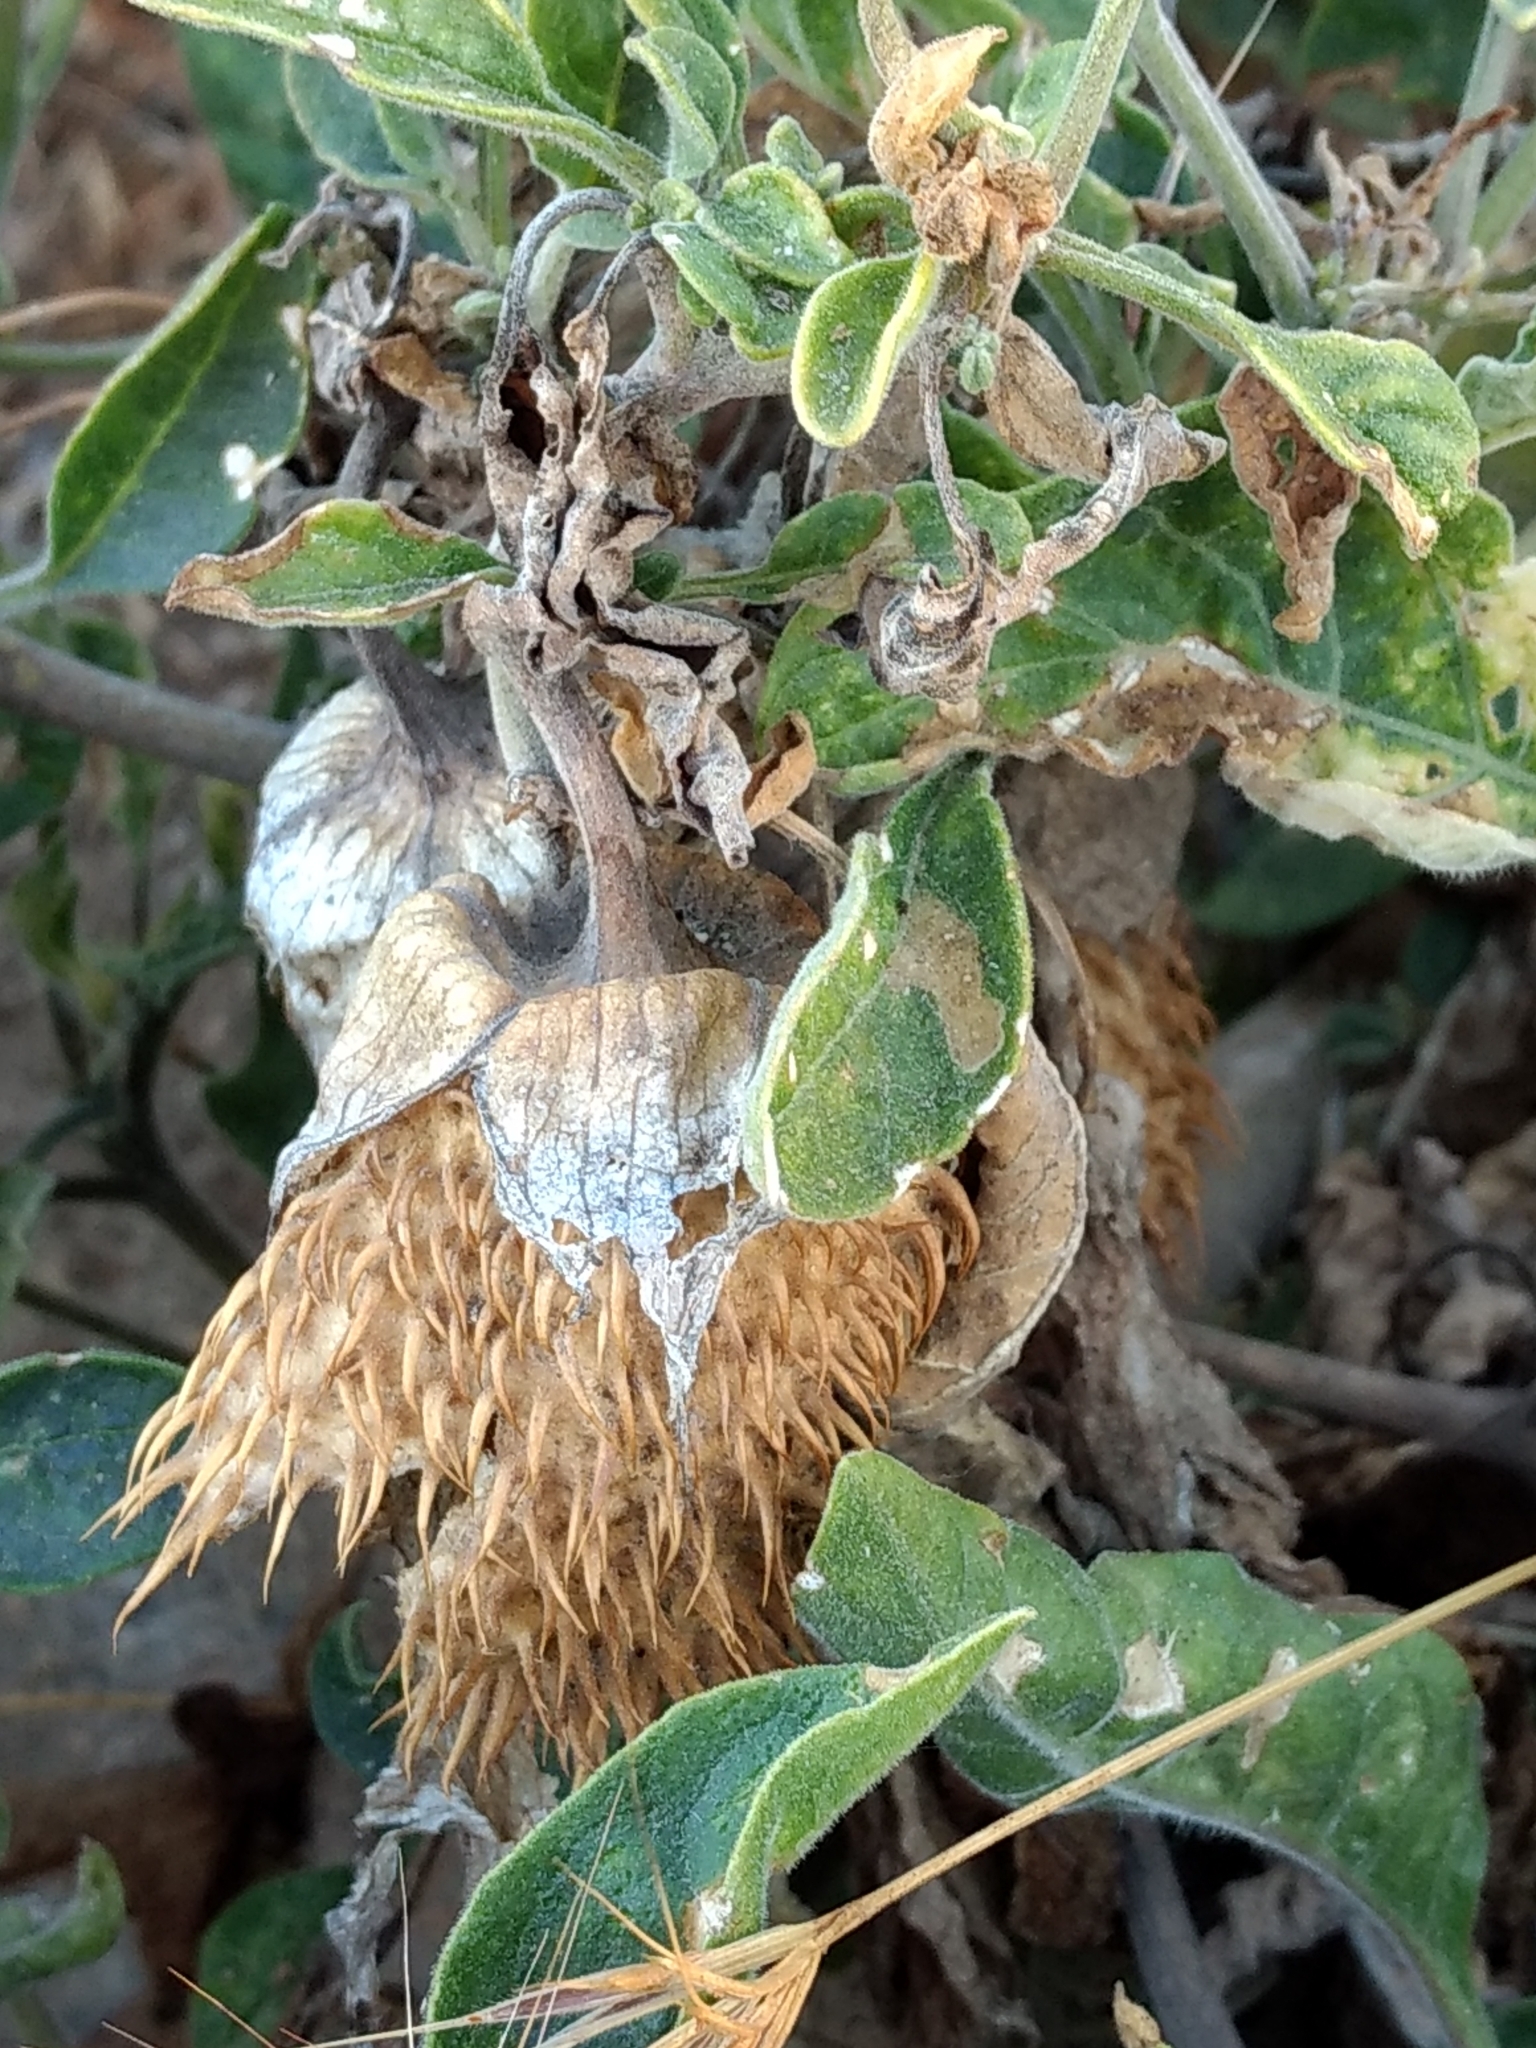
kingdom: Plantae
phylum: Tracheophyta
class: Magnoliopsida
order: Solanales
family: Solanaceae
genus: Datura
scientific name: Datura wrightii
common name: Sacred thorn-apple
